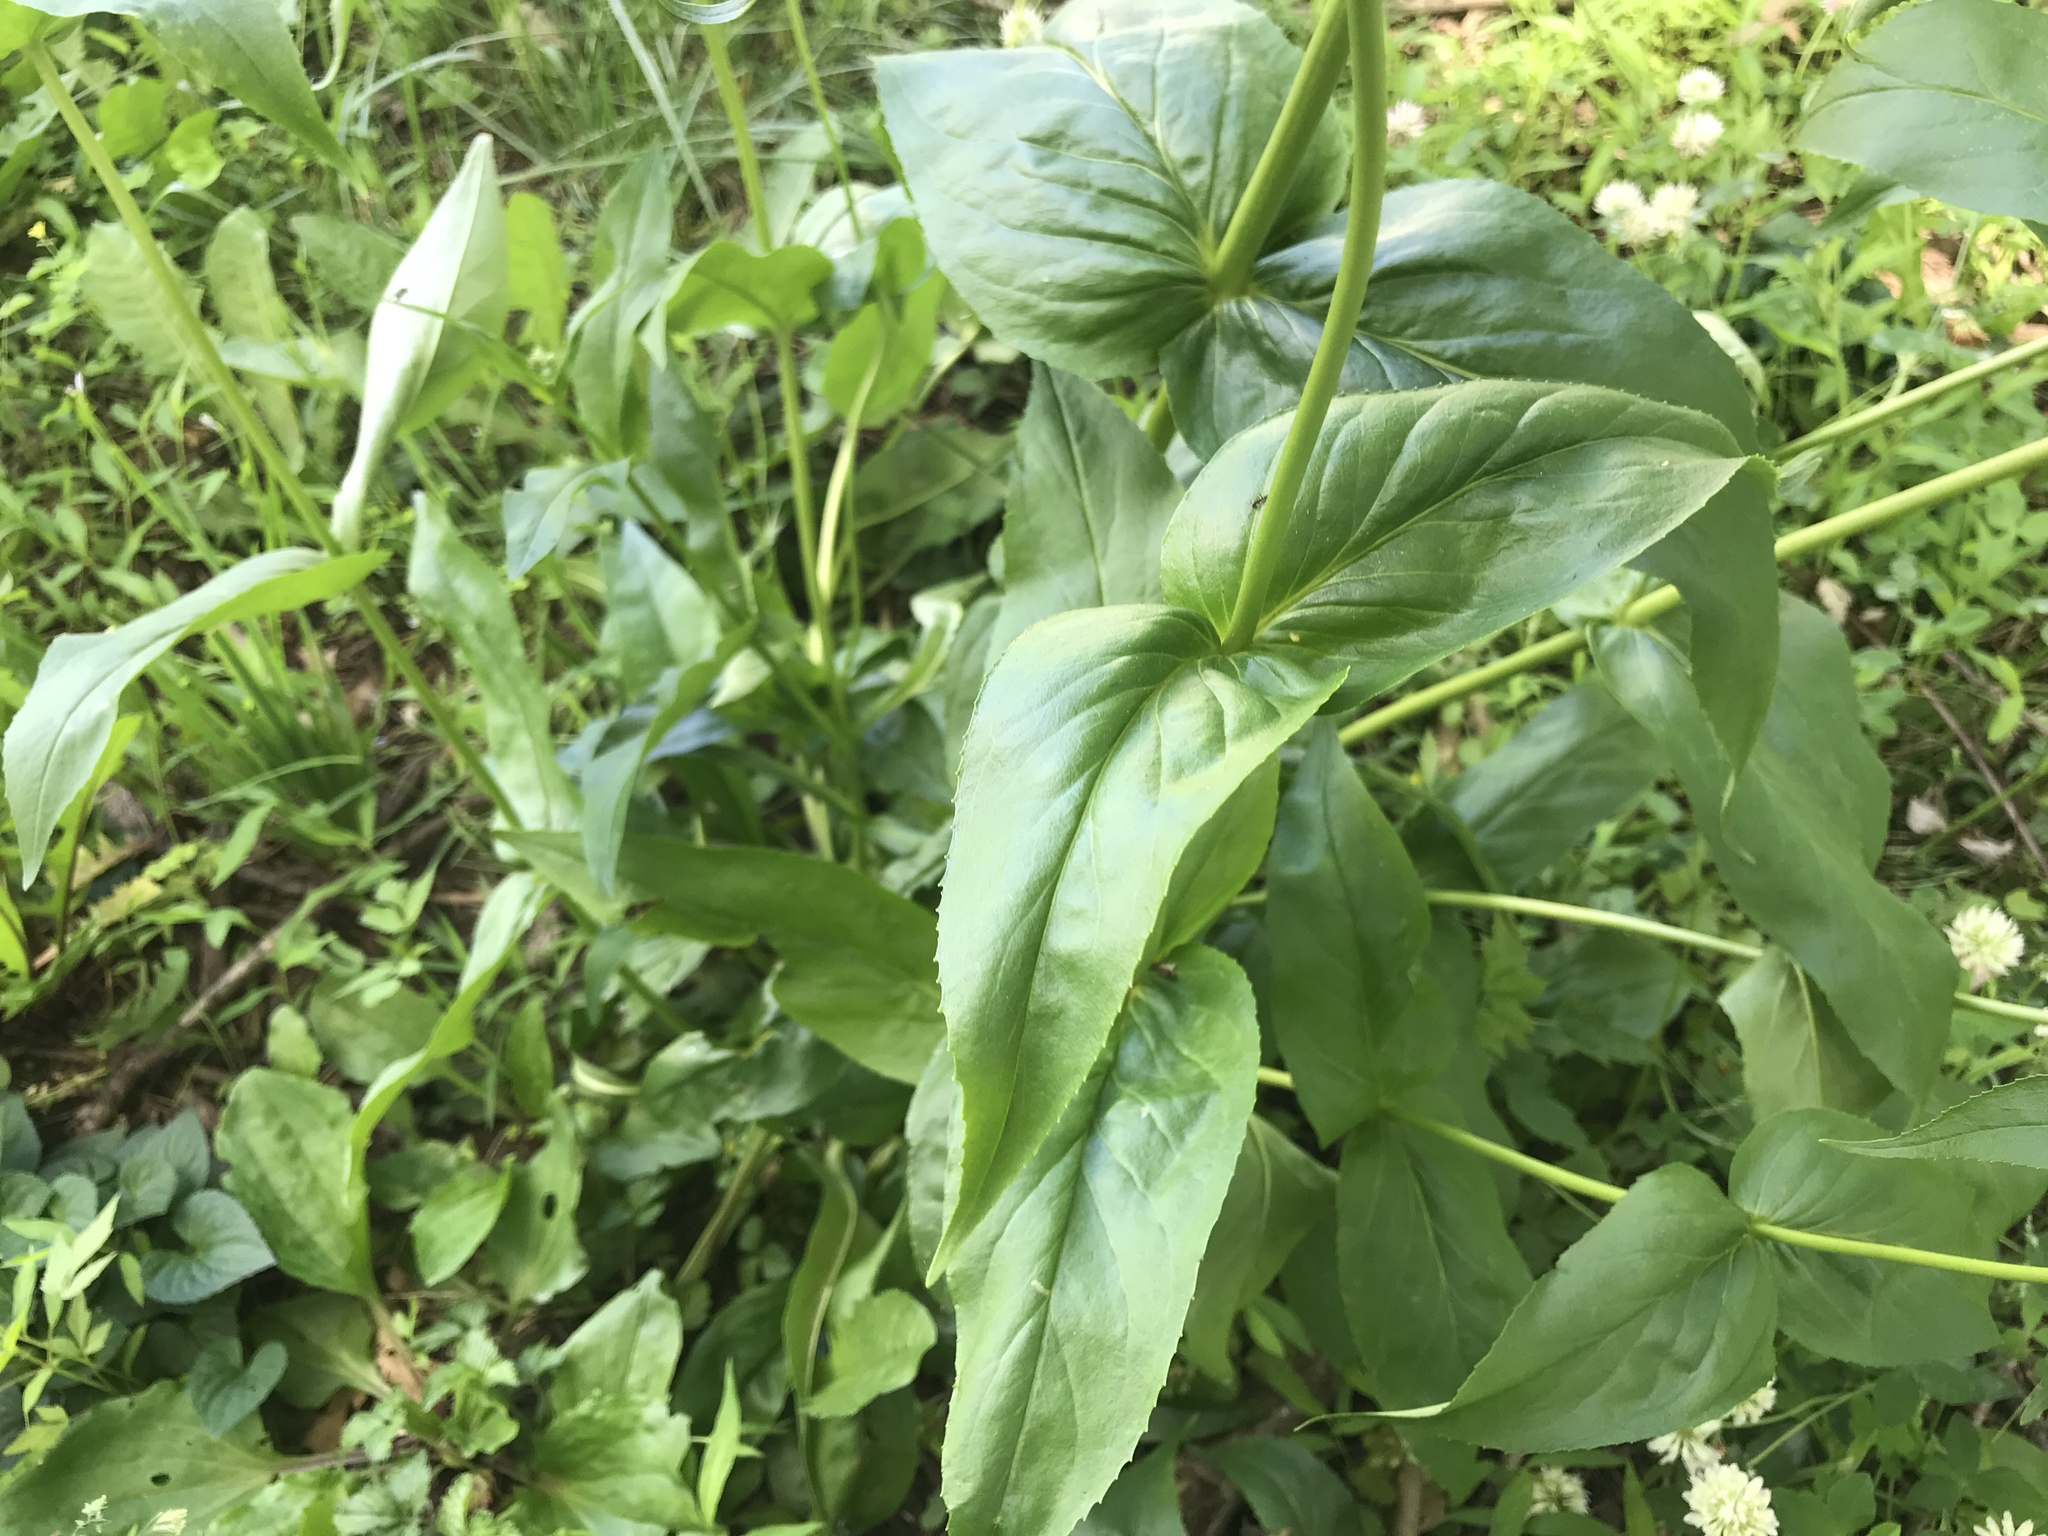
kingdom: Plantae
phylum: Tracheophyta
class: Magnoliopsida
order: Lamiales
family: Plantaginaceae
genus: Penstemon
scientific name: Penstemon digitalis
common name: Foxglove beardtongue
